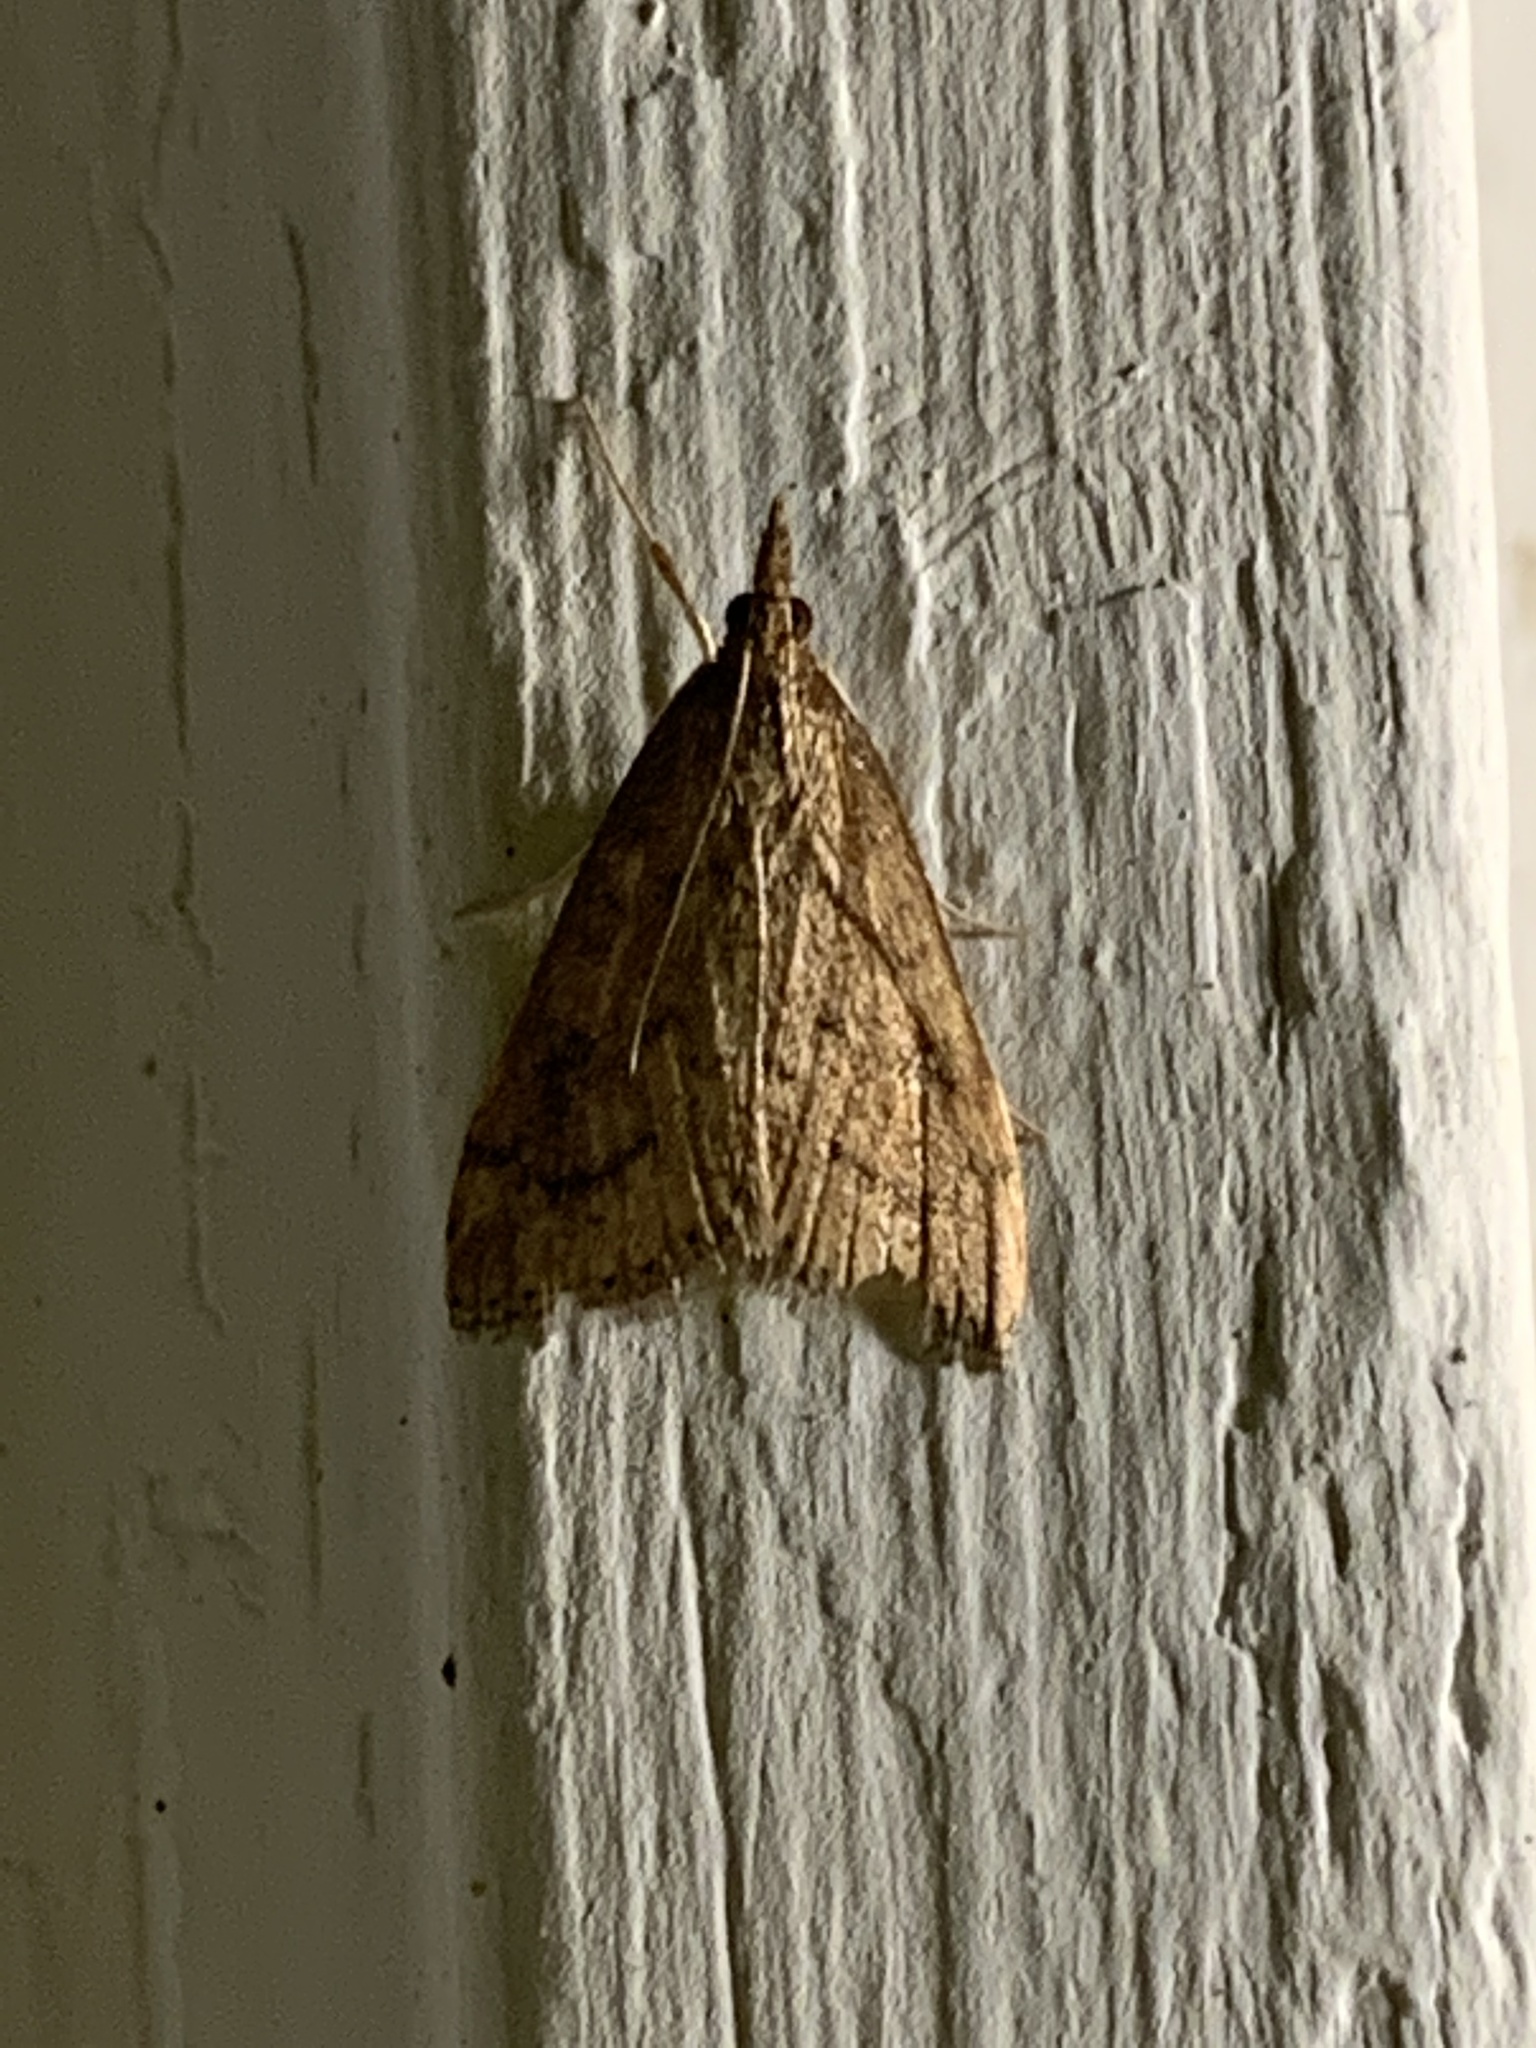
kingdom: Animalia
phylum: Arthropoda
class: Insecta
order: Lepidoptera
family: Crambidae
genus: Udea
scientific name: Udea rubigalis
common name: Celery leaftier moth
